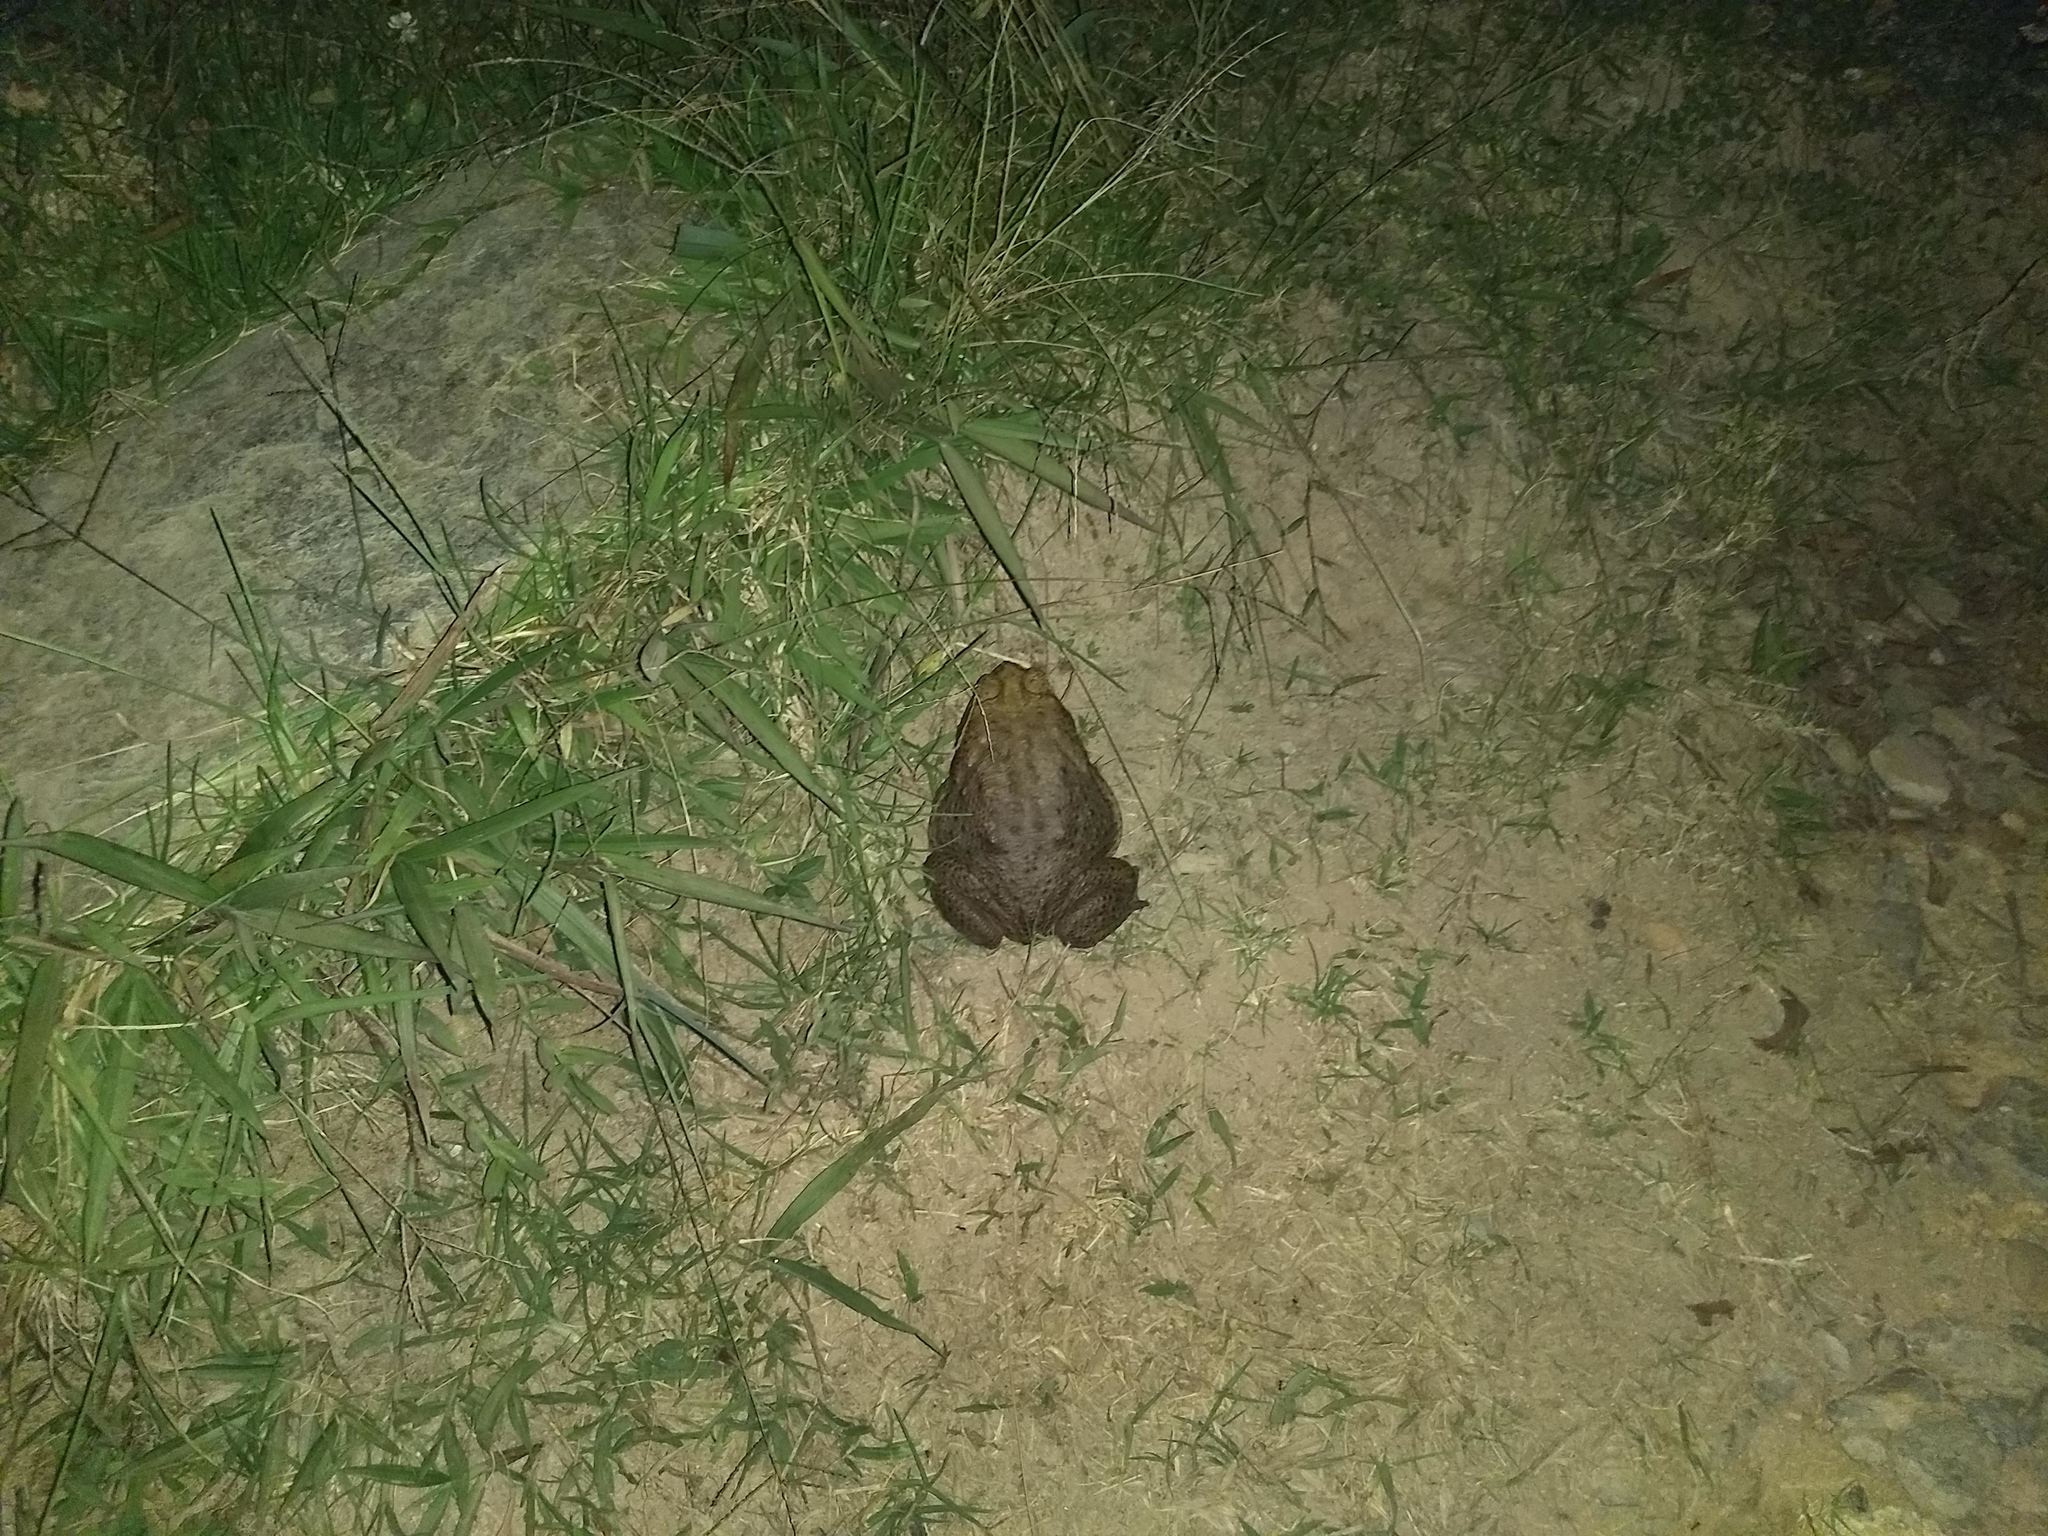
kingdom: Animalia
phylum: Chordata
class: Amphibia
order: Anura
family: Bufonidae
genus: Rhinella
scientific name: Rhinella horribilis
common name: Mesoamerican cane toad
